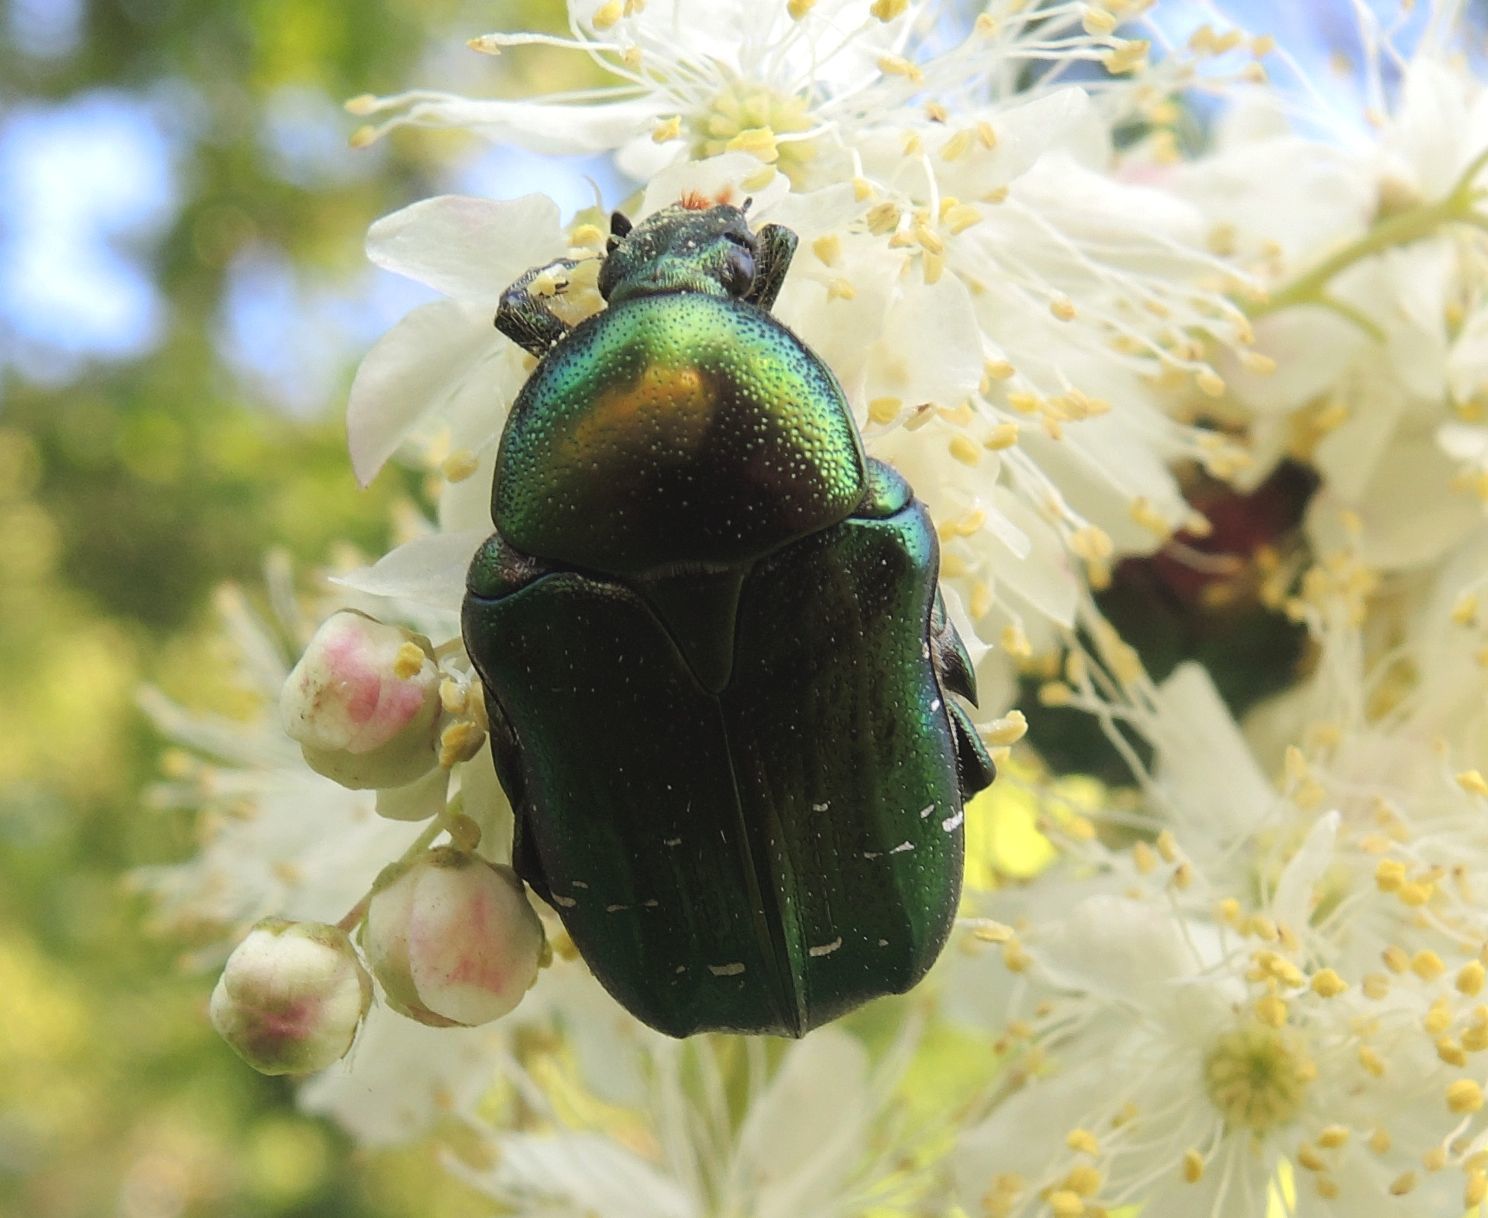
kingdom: Animalia
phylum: Arthropoda
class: Insecta
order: Coleoptera
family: Scarabaeidae
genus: Cetonia
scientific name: Cetonia aurata
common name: Rose chafer
